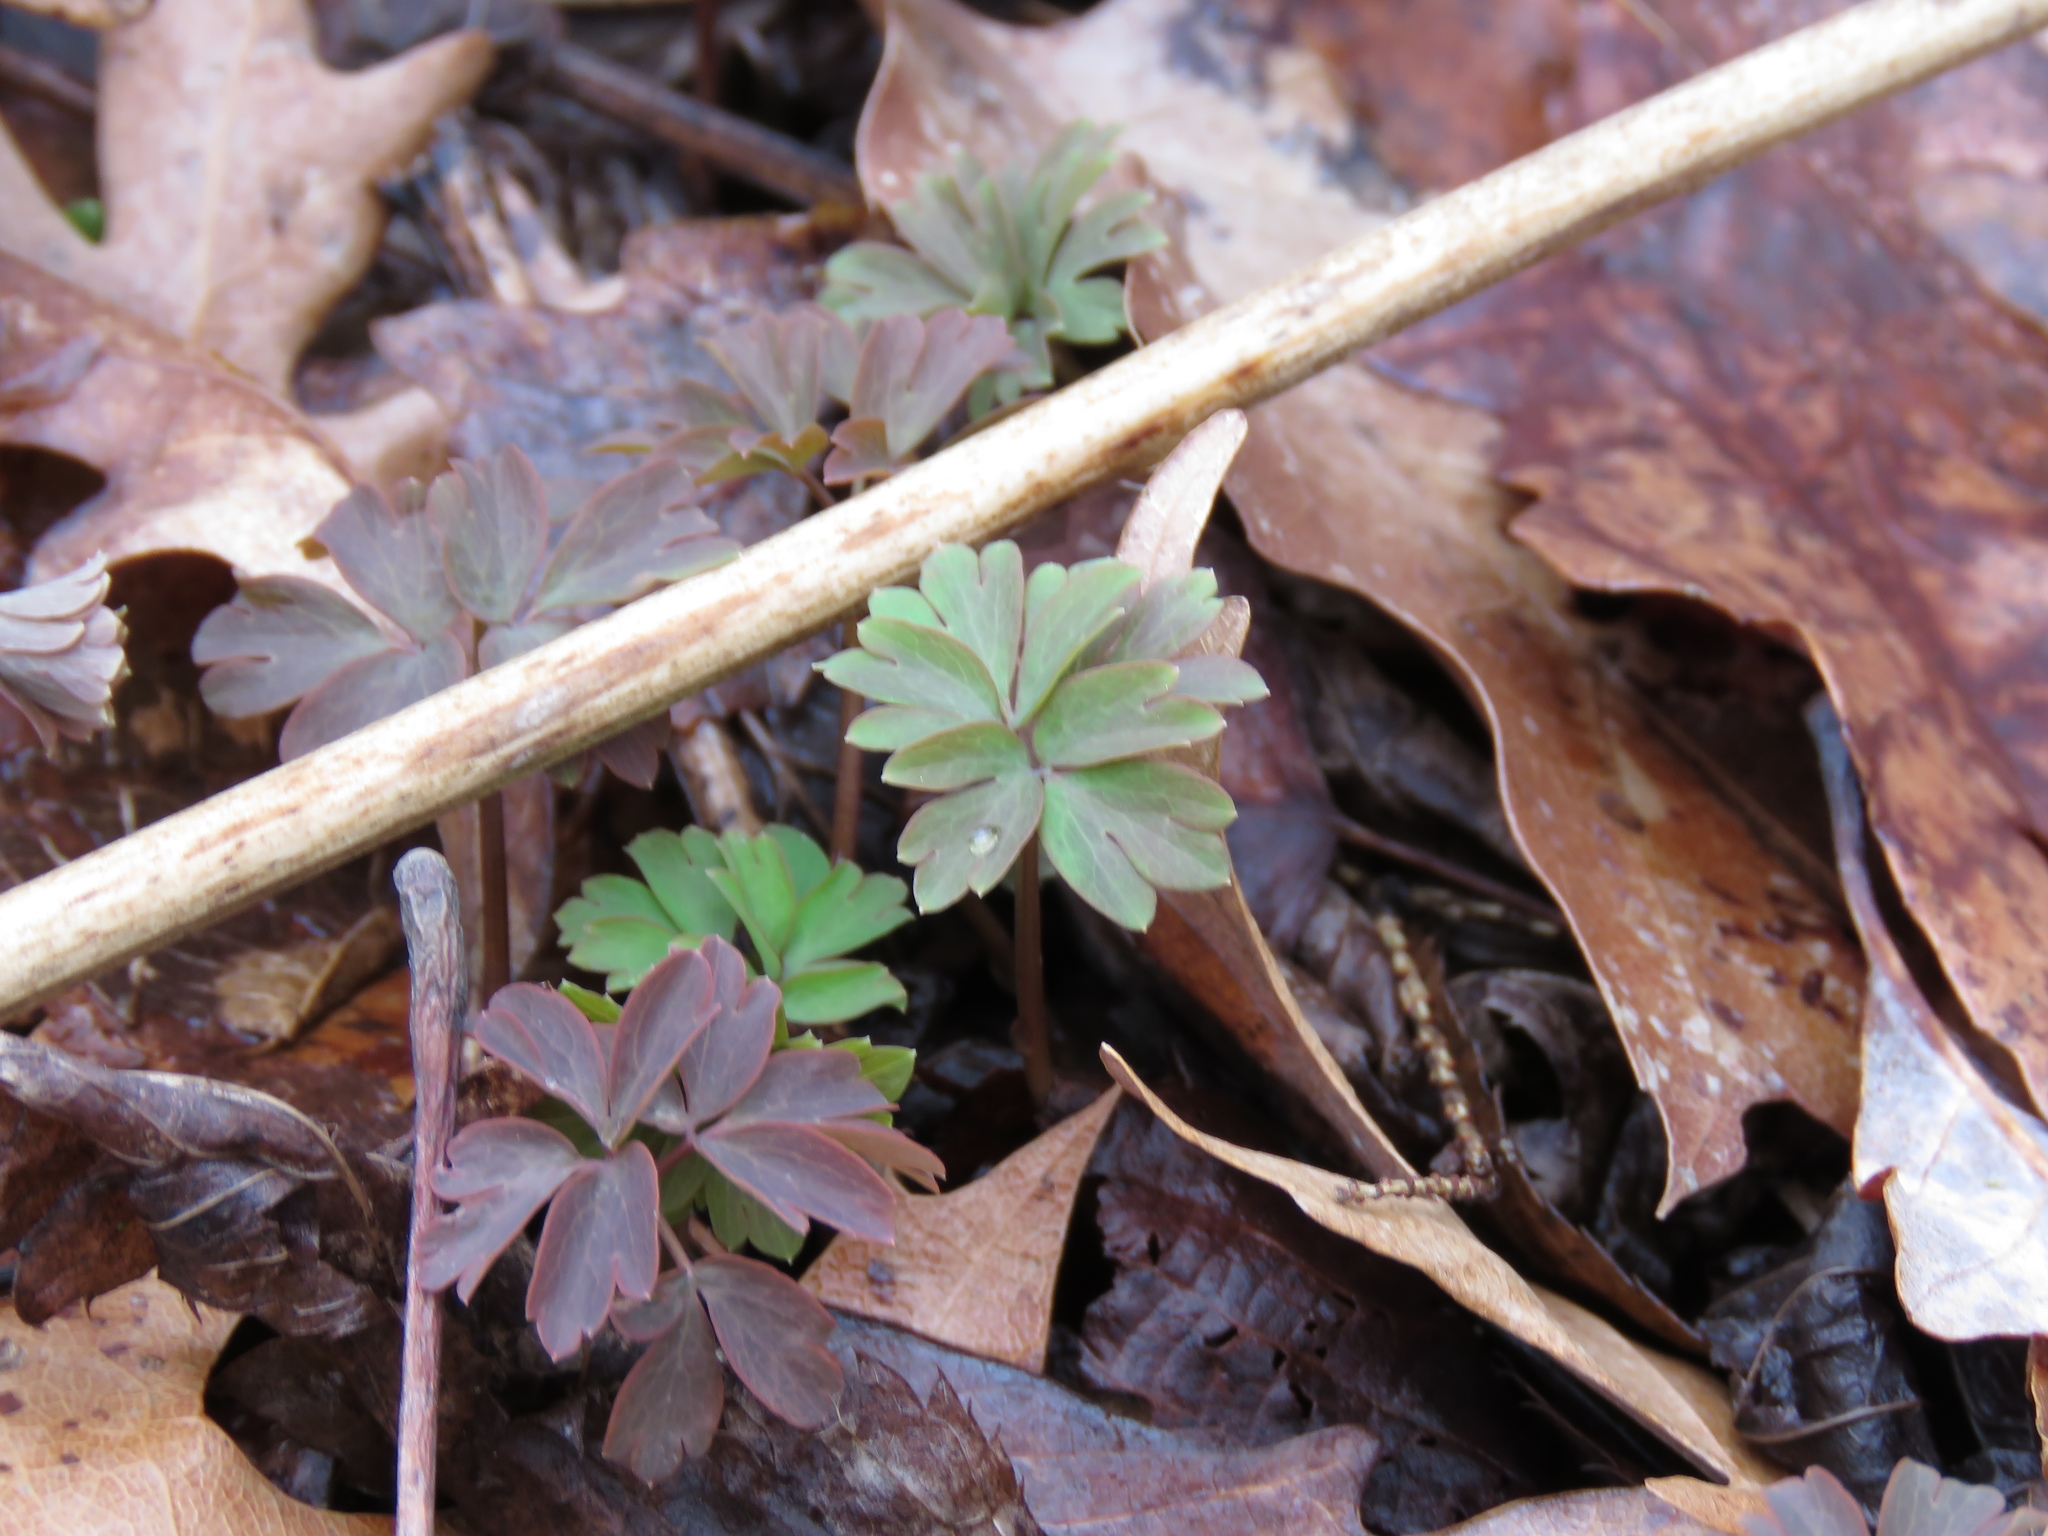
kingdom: Plantae
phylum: Tracheophyta
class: Magnoliopsida
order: Ranunculales
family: Ranunculaceae
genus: Enemion
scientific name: Enemion biternatum
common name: Eastern false rue-anemone
